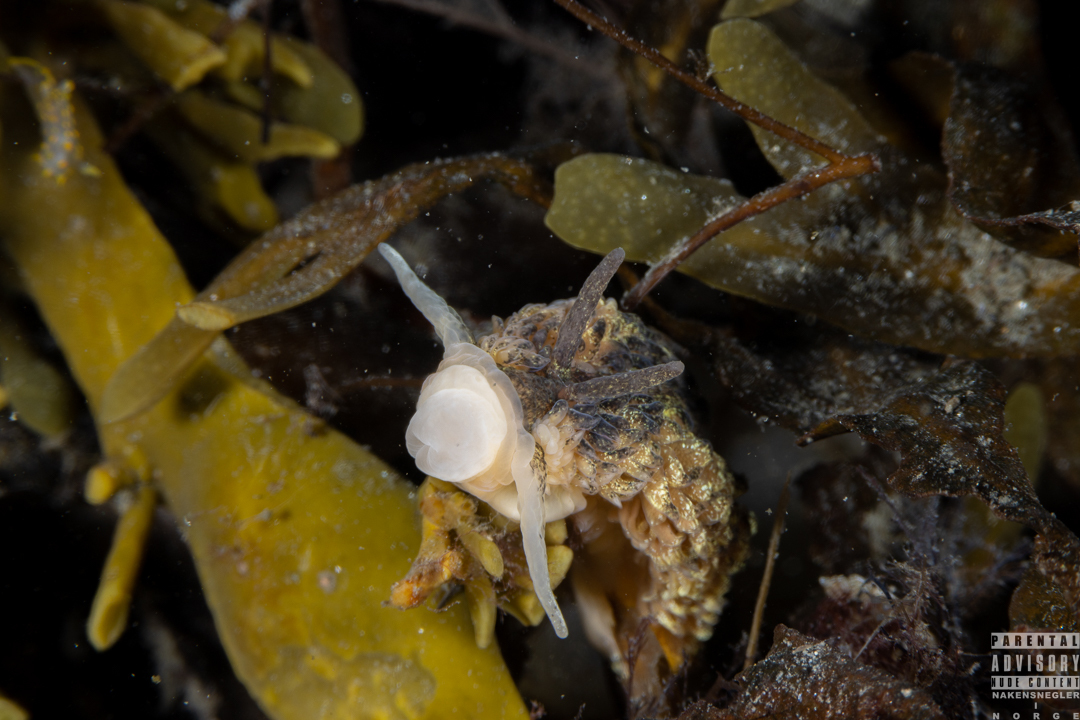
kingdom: Animalia
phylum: Mollusca
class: Gastropoda
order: Nudibranchia
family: Aeolidiidae
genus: Aeolidia
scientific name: Aeolidia papillosa
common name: Common grey sea slug
